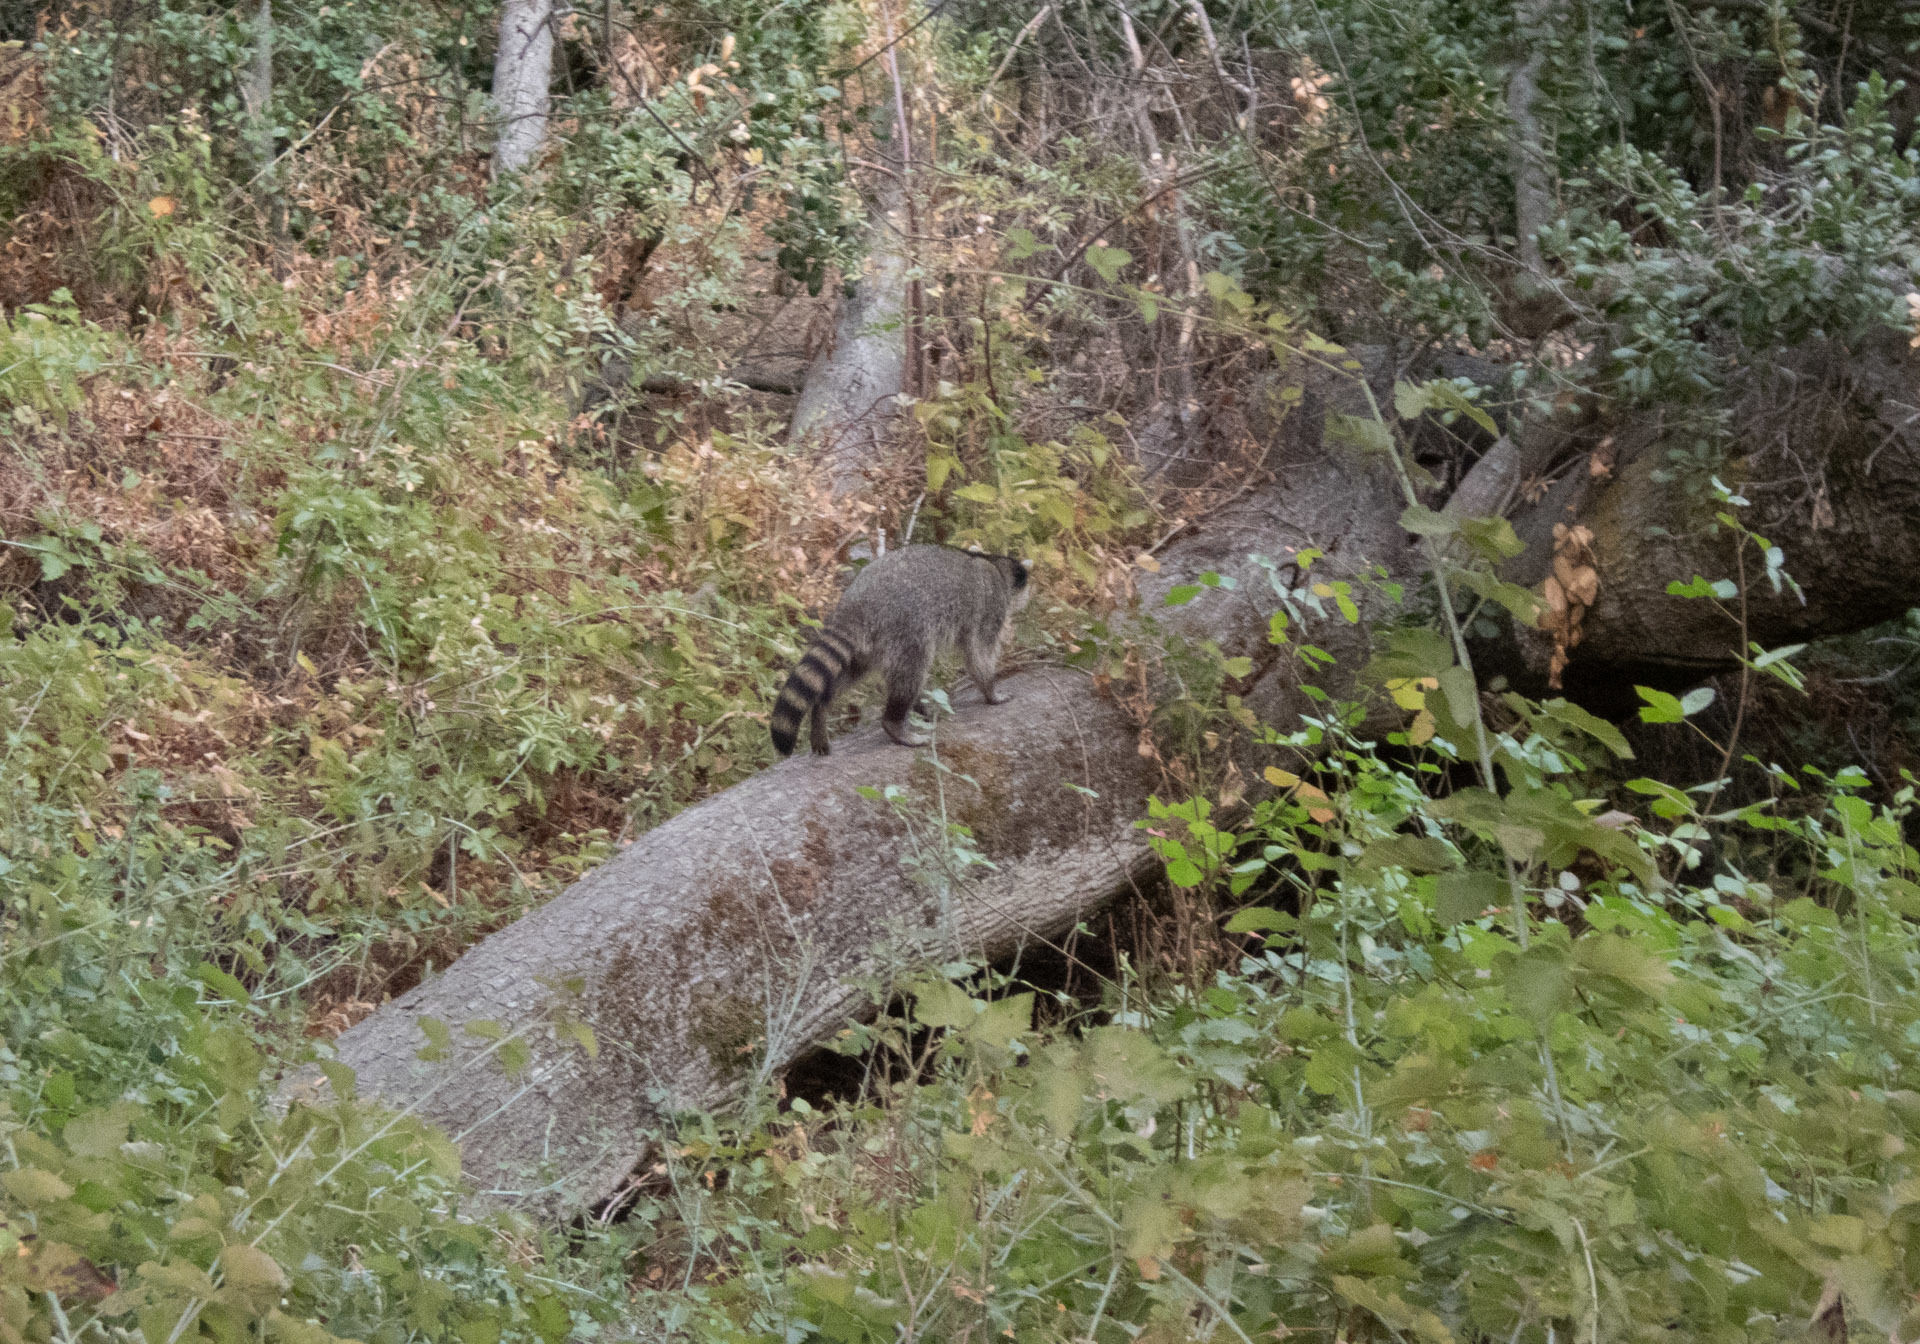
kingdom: Animalia
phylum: Chordata
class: Mammalia
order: Carnivora
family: Procyonidae
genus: Procyon
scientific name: Procyon lotor
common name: Raccoon
